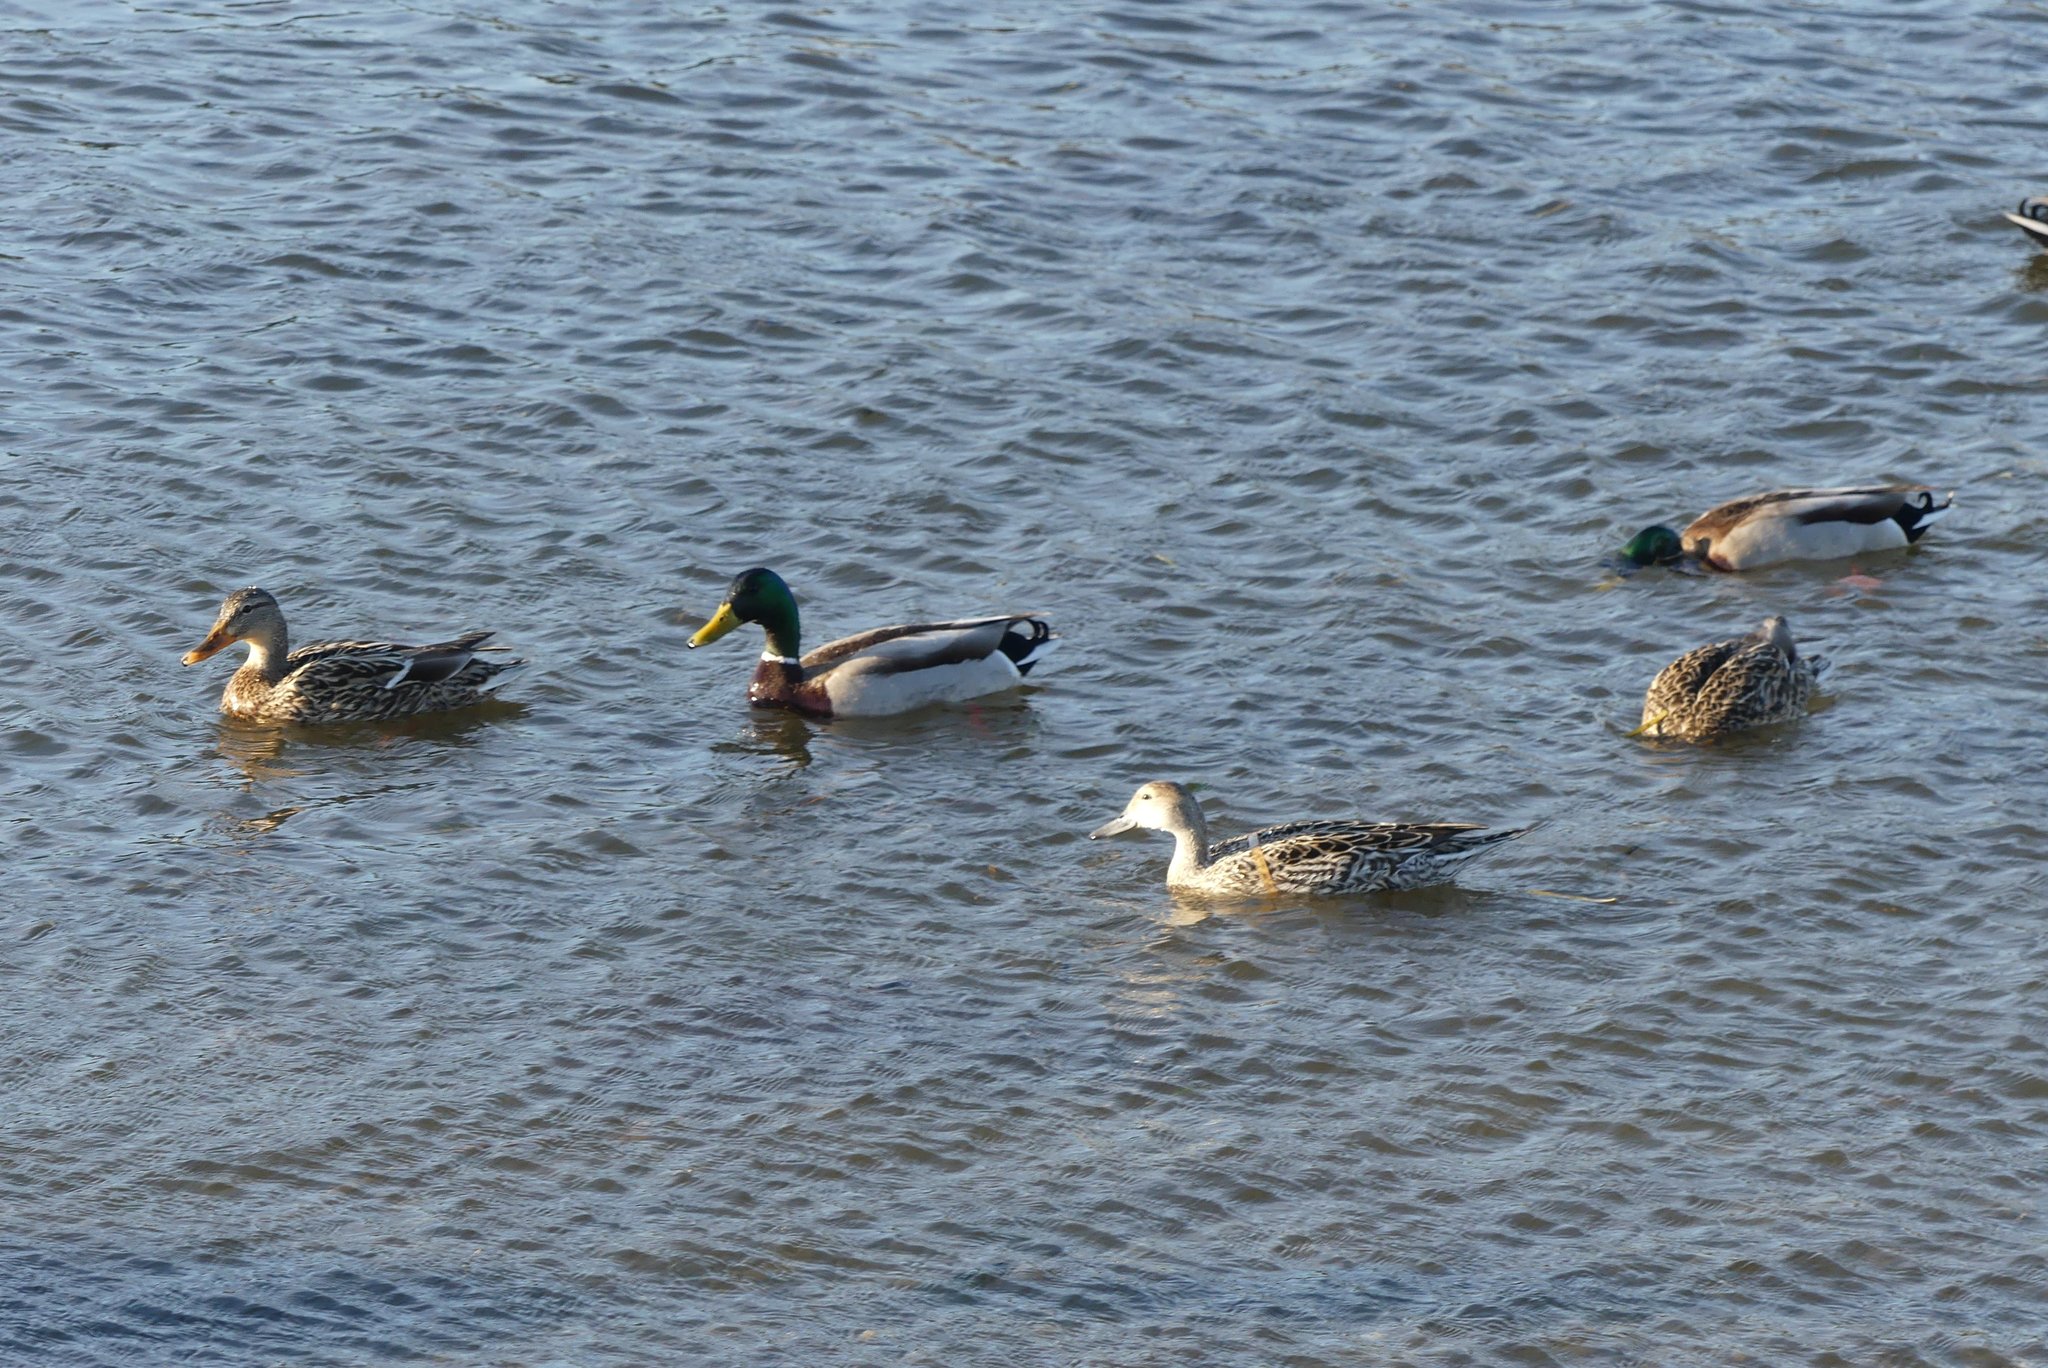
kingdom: Animalia
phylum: Chordata
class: Aves
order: Anseriformes
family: Anatidae
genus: Anas
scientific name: Anas platyrhynchos
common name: Mallard
